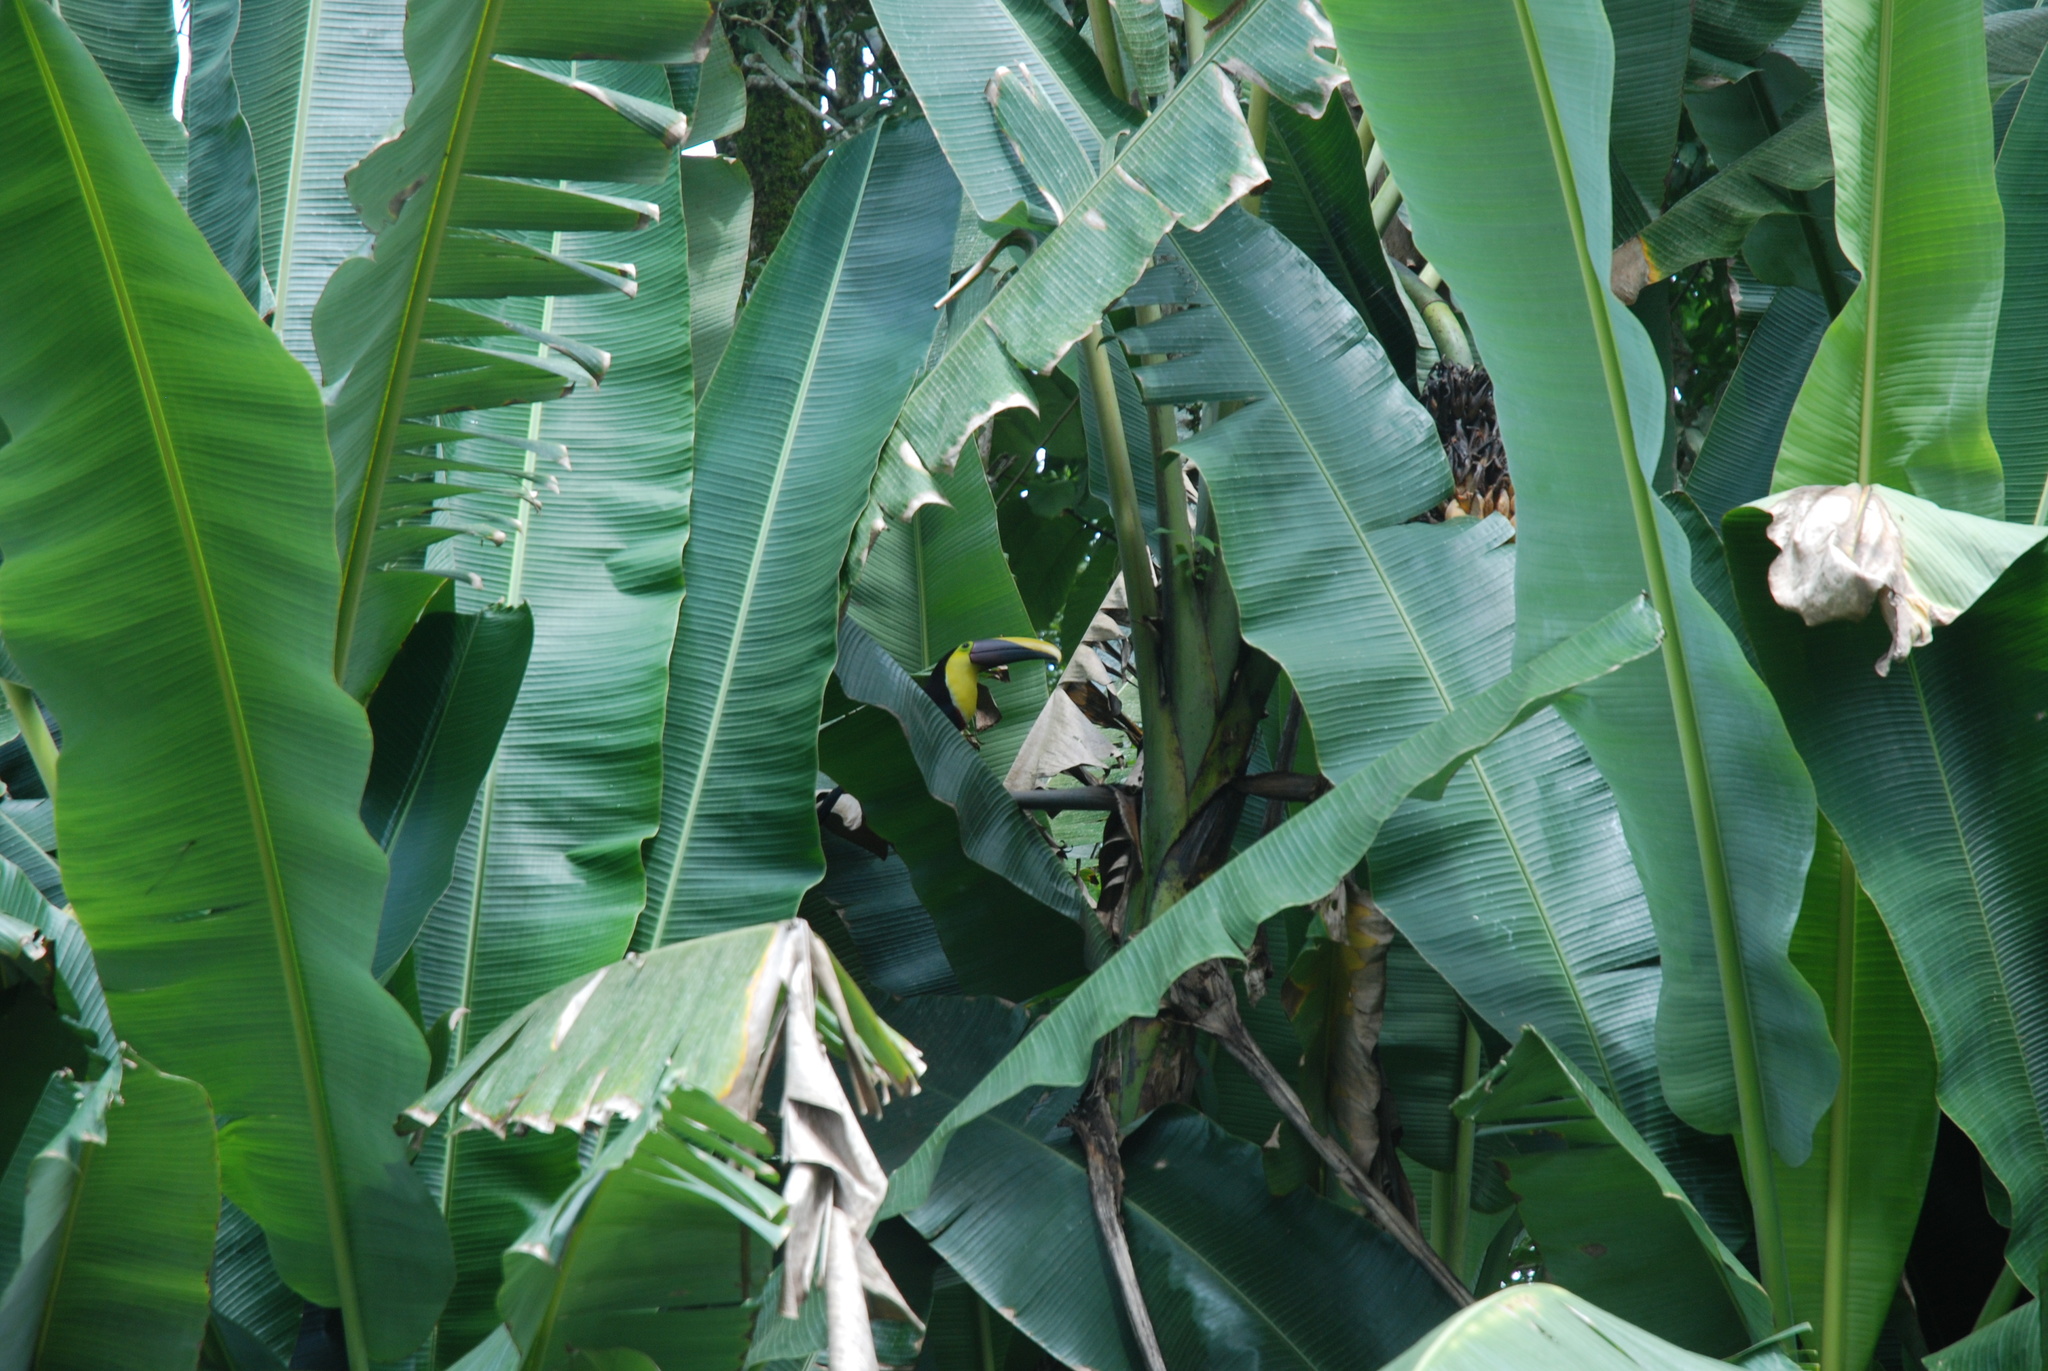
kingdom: Animalia
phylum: Chordata
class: Aves
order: Piciformes
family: Ramphastidae
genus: Ramphastos
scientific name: Ramphastos ambiguus
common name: Yellow-throated toucan
